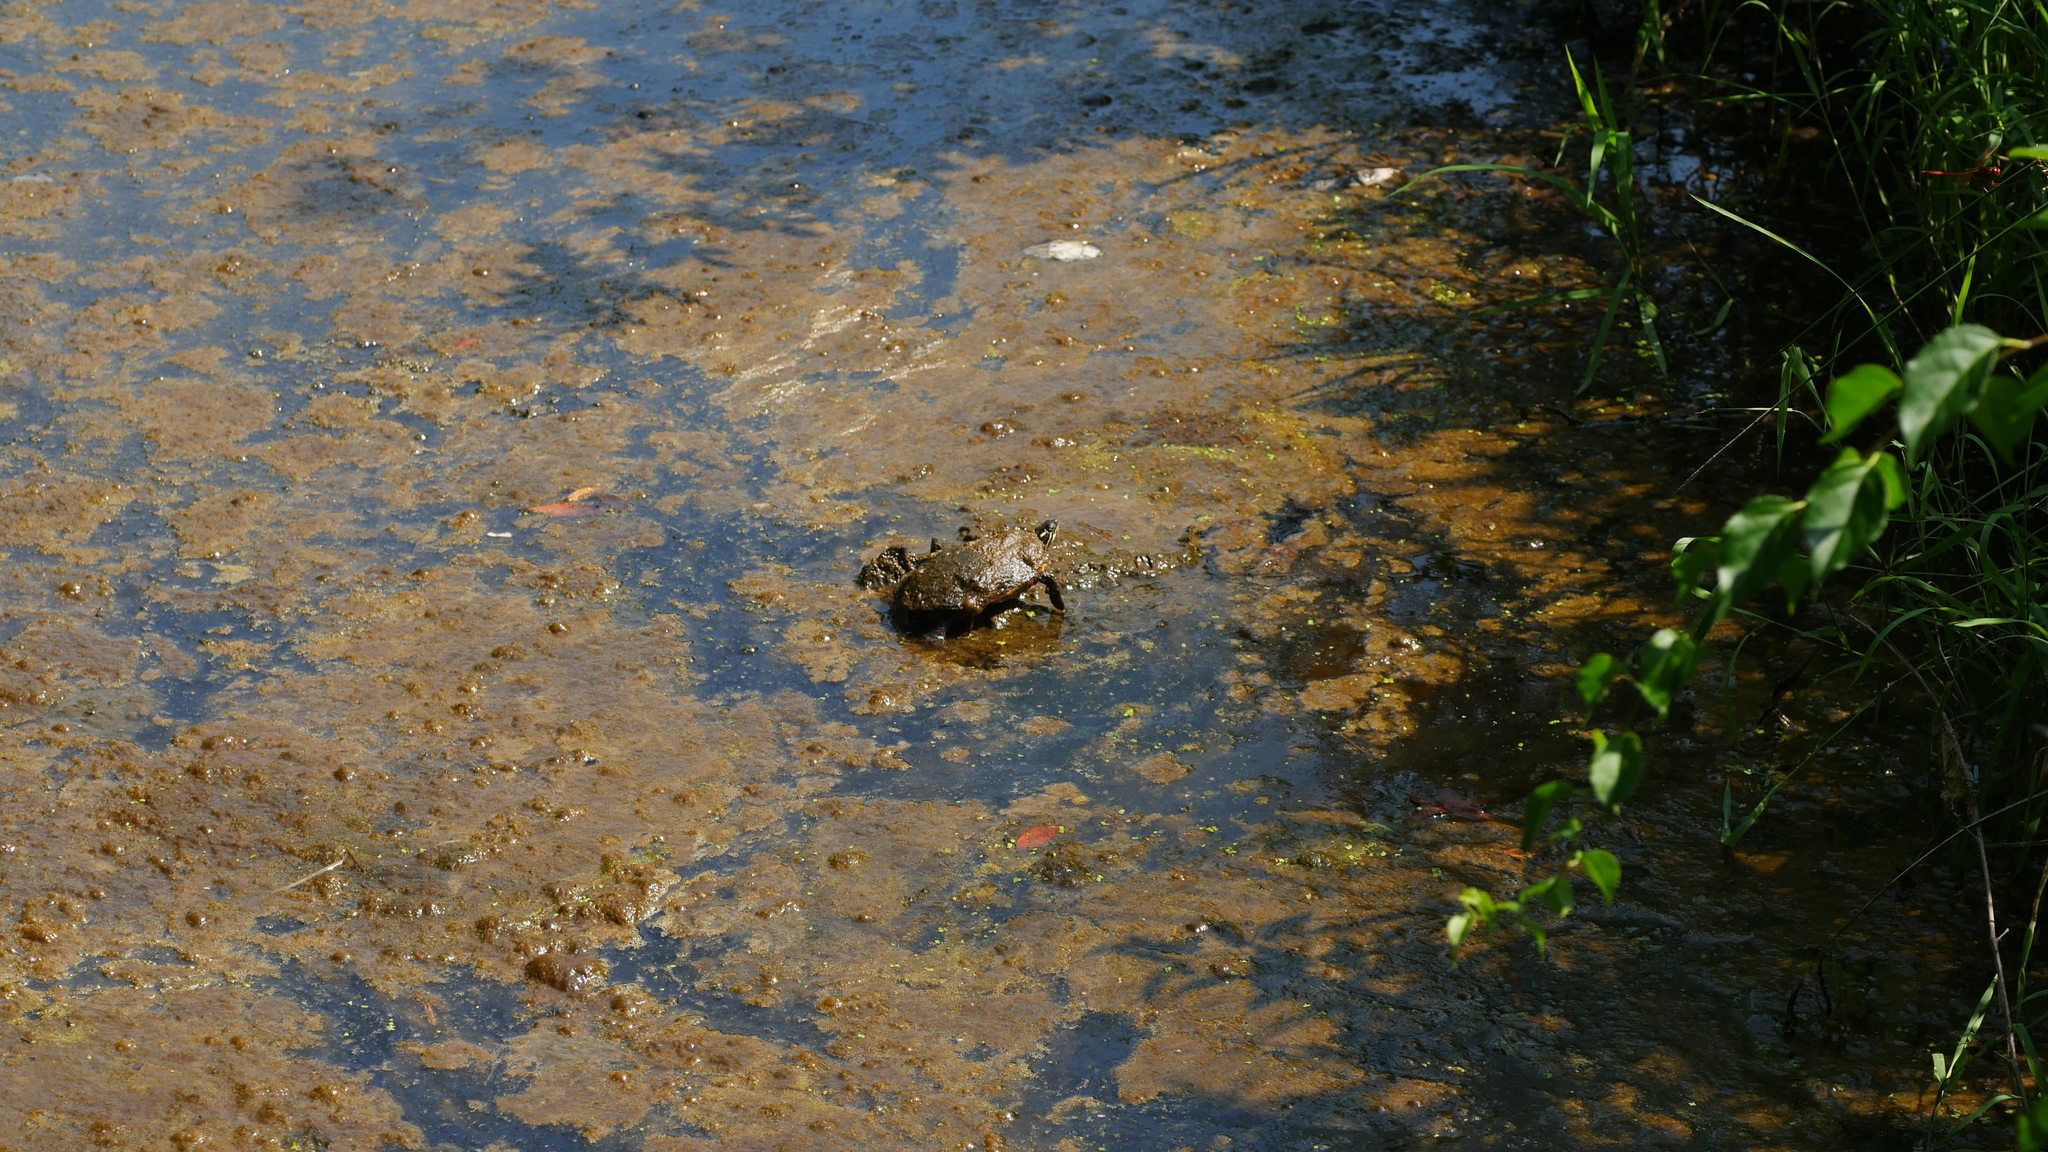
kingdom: Animalia
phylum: Chordata
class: Testudines
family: Emydidae
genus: Chrysemys
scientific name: Chrysemys picta
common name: Painted turtle
